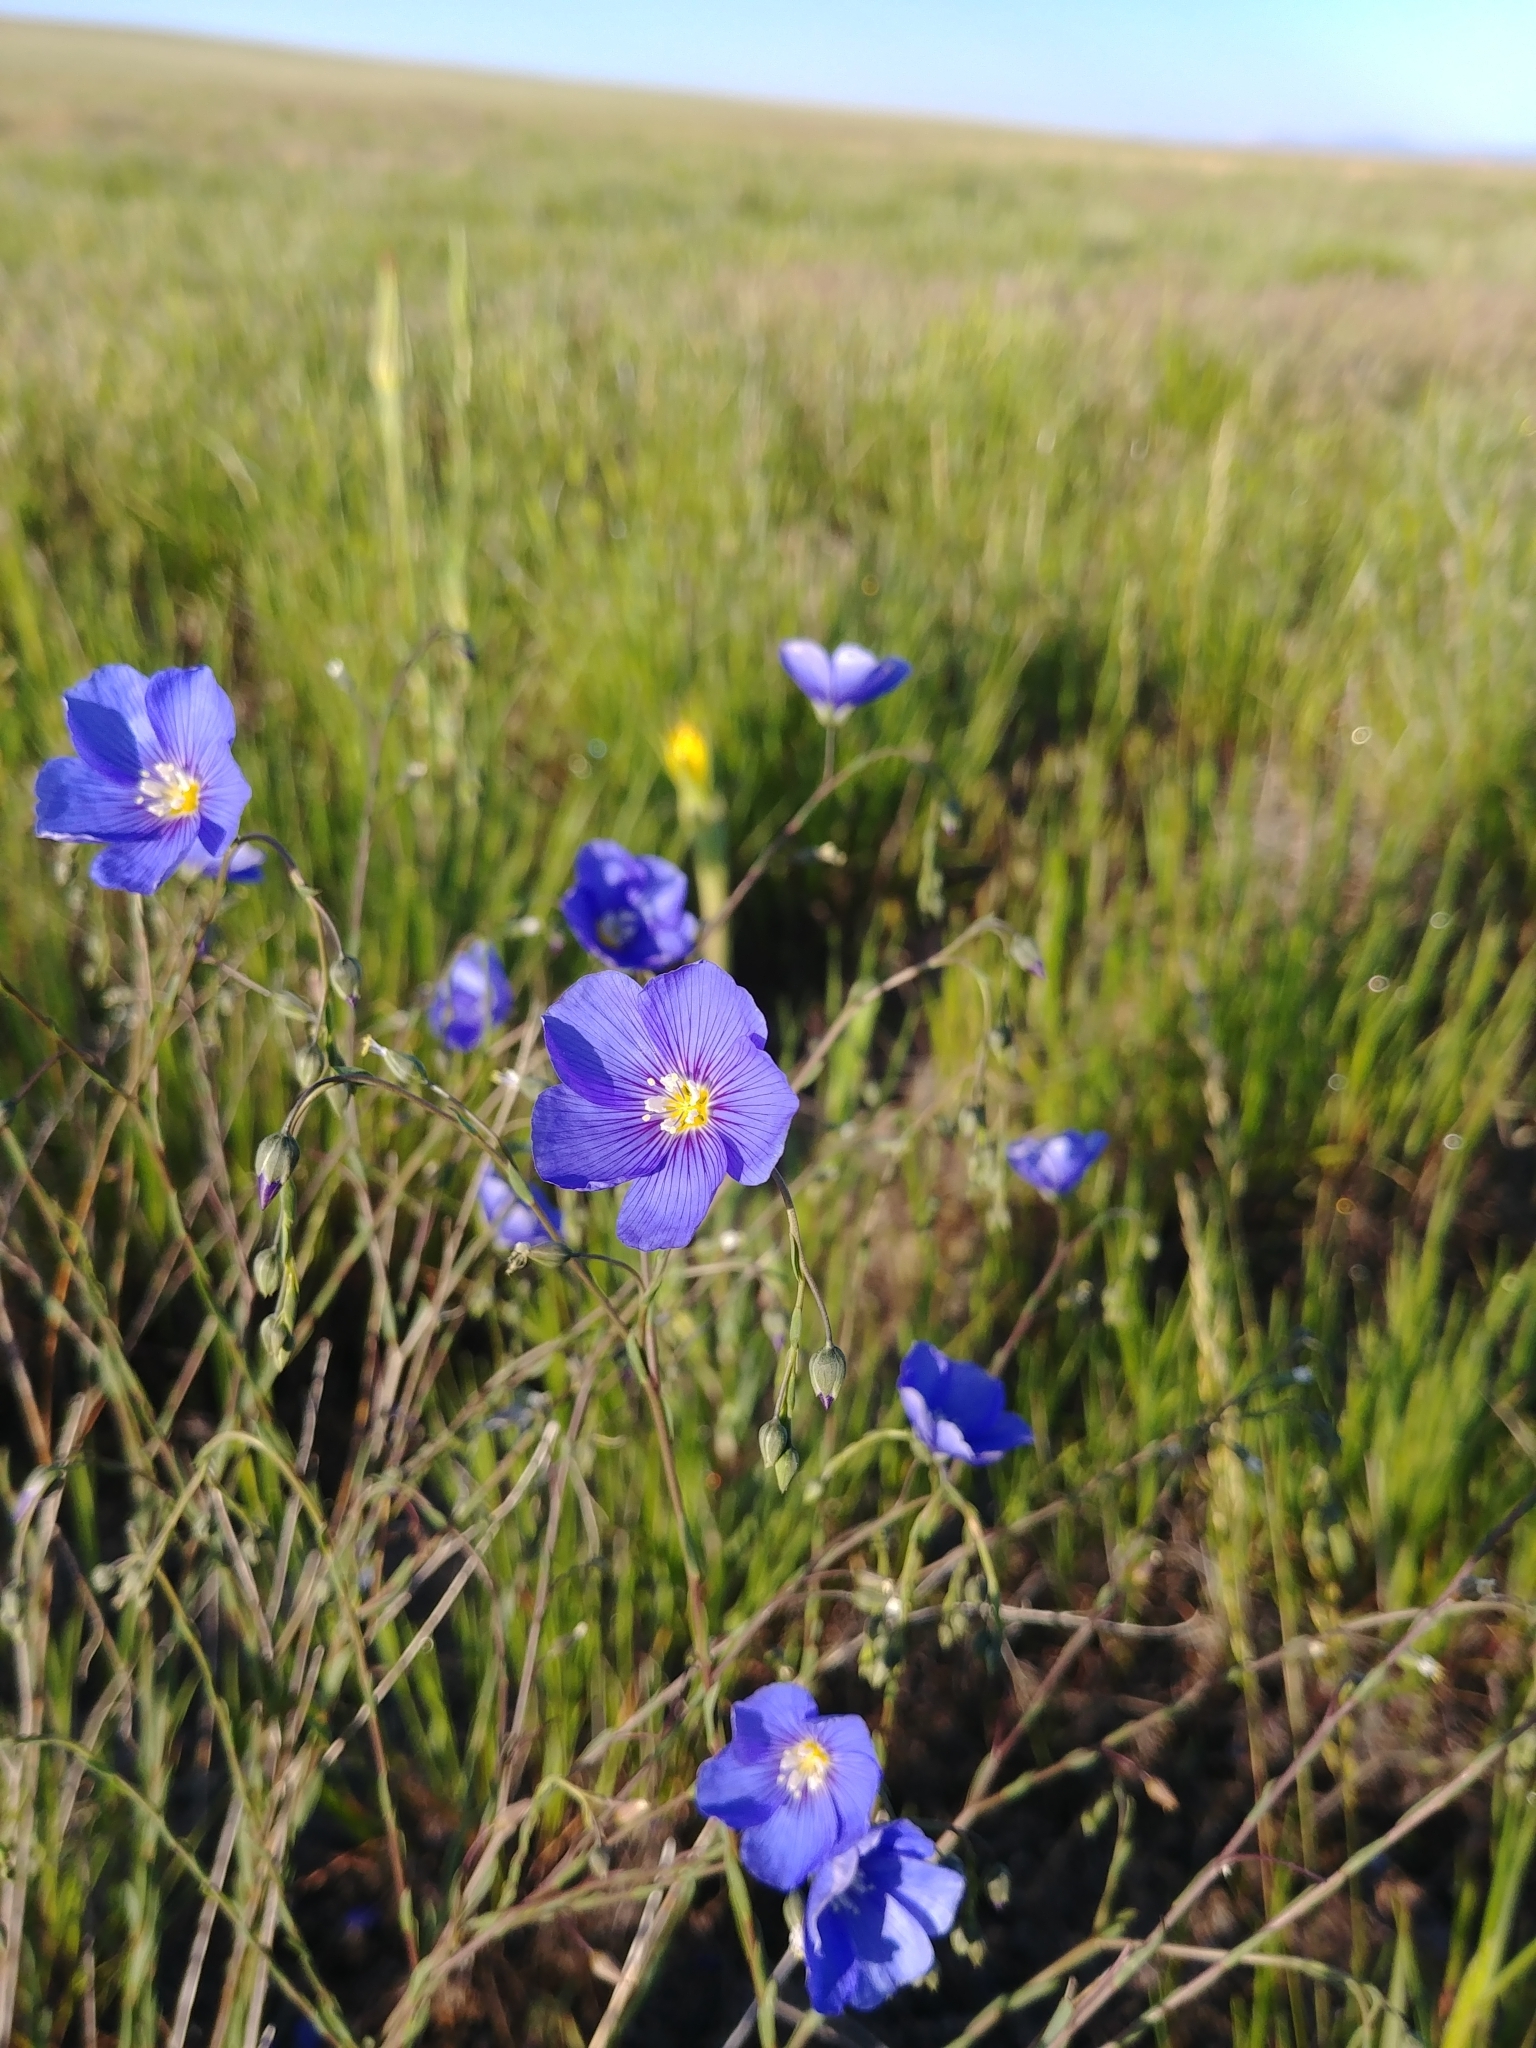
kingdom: Plantae
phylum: Tracheophyta
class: Magnoliopsida
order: Malpighiales
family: Linaceae
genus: Linum
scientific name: Linum perenne
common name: Blue flax
